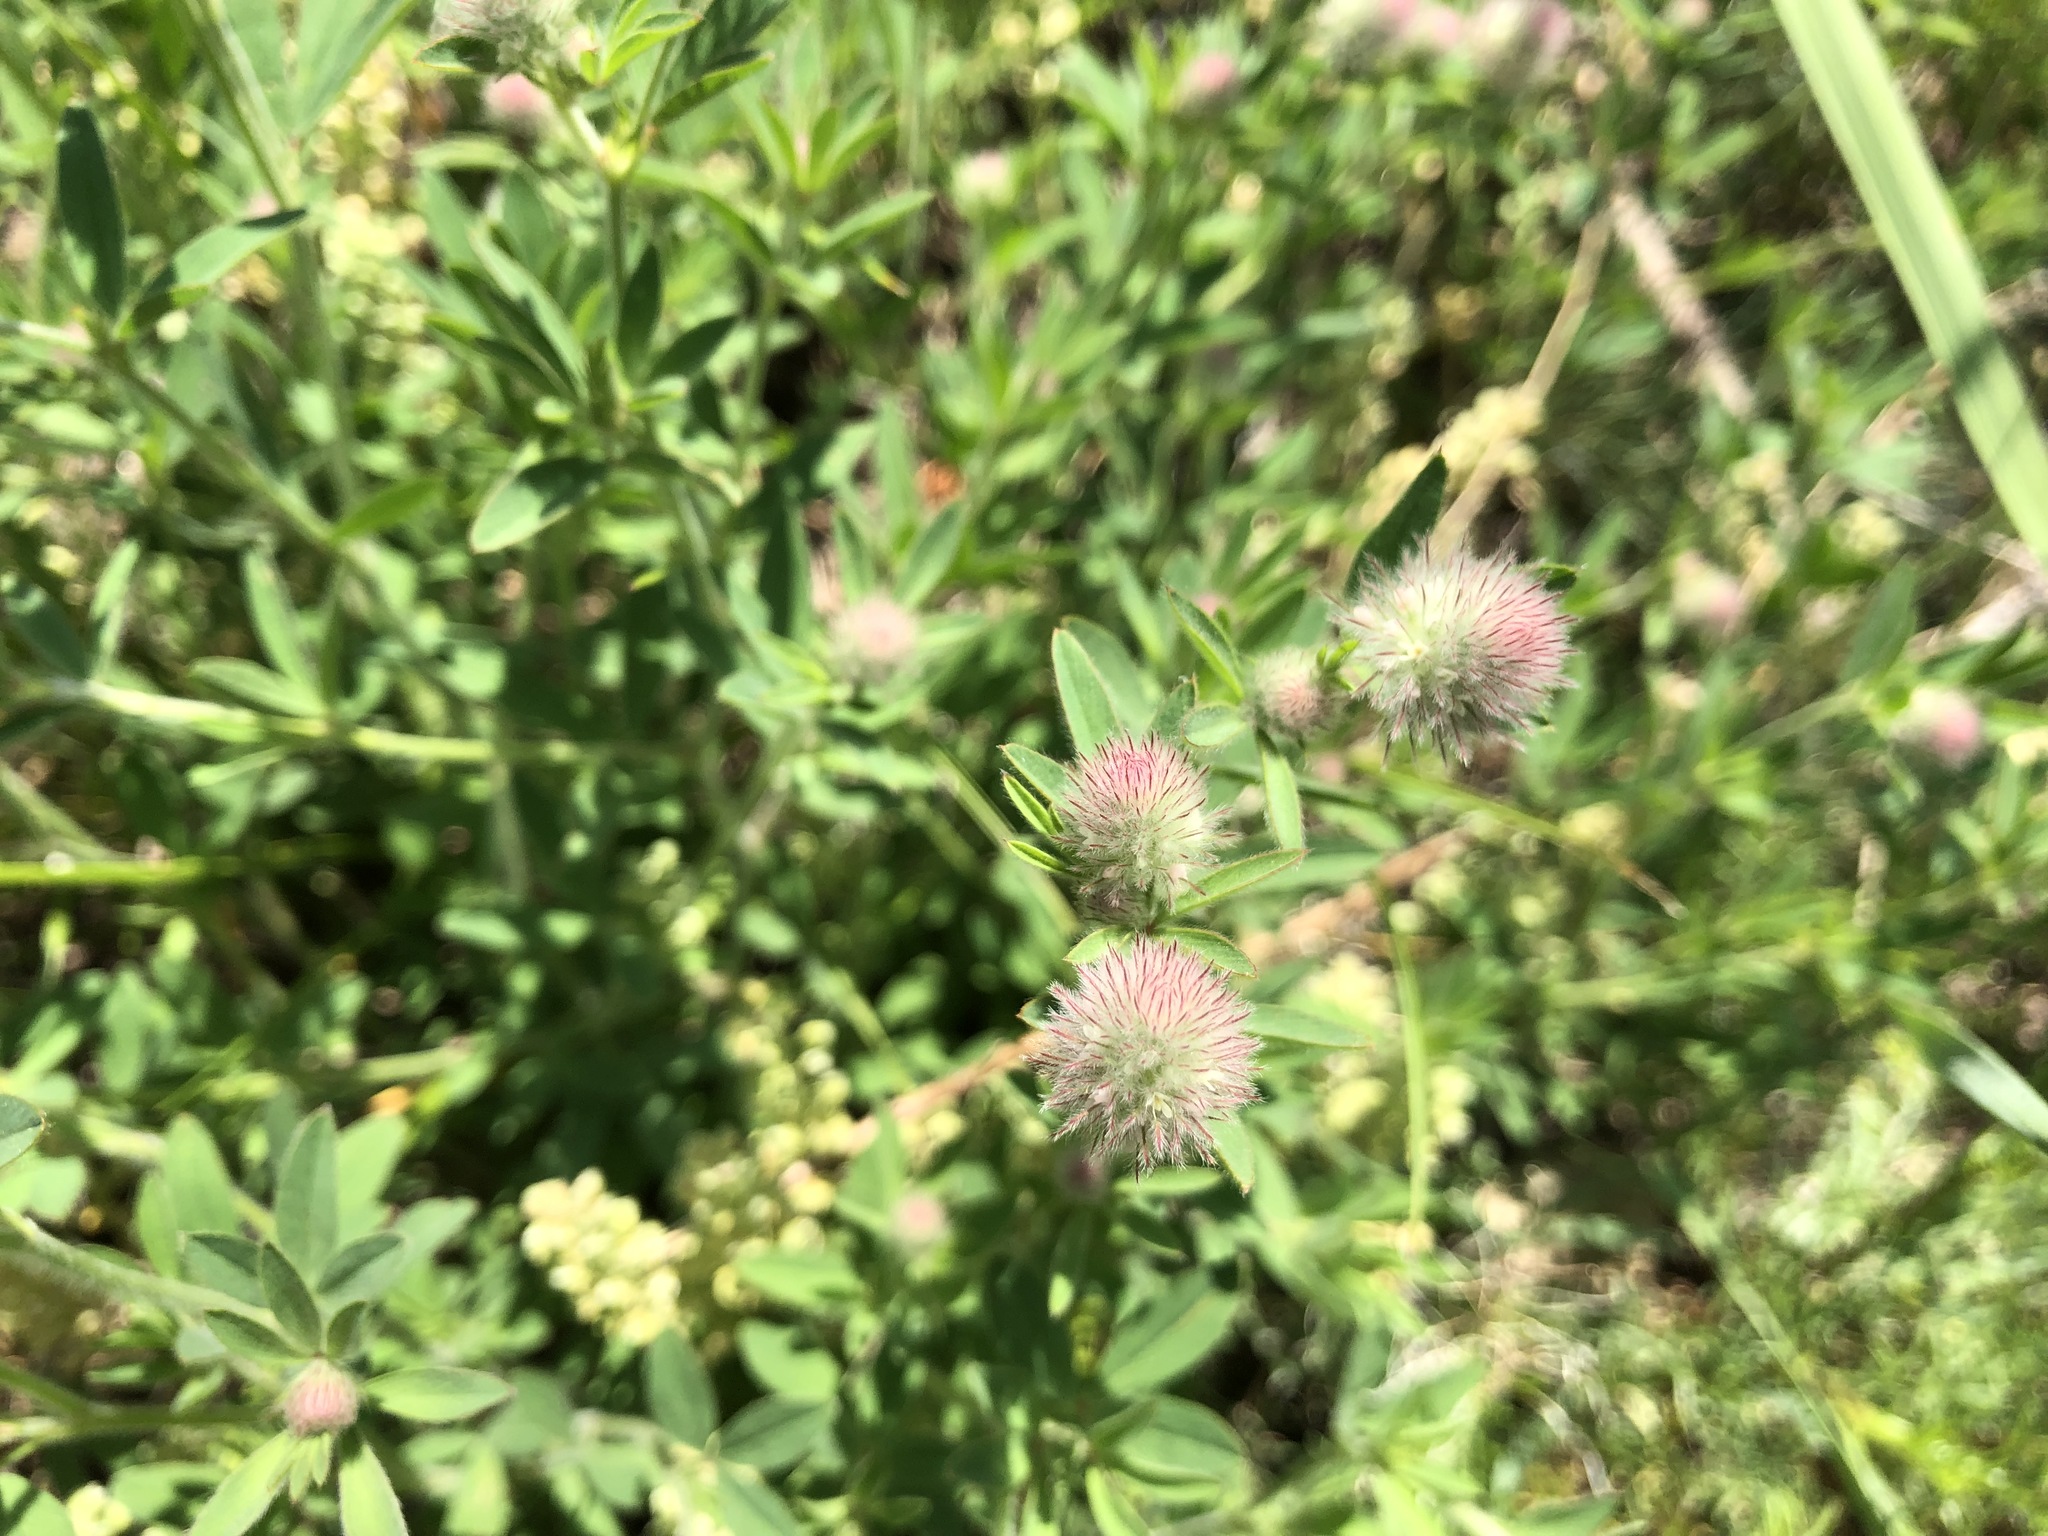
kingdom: Plantae
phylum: Tracheophyta
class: Magnoliopsida
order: Fabales
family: Fabaceae
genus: Trifolium
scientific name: Trifolium arvense
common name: Hare's-foot clover
